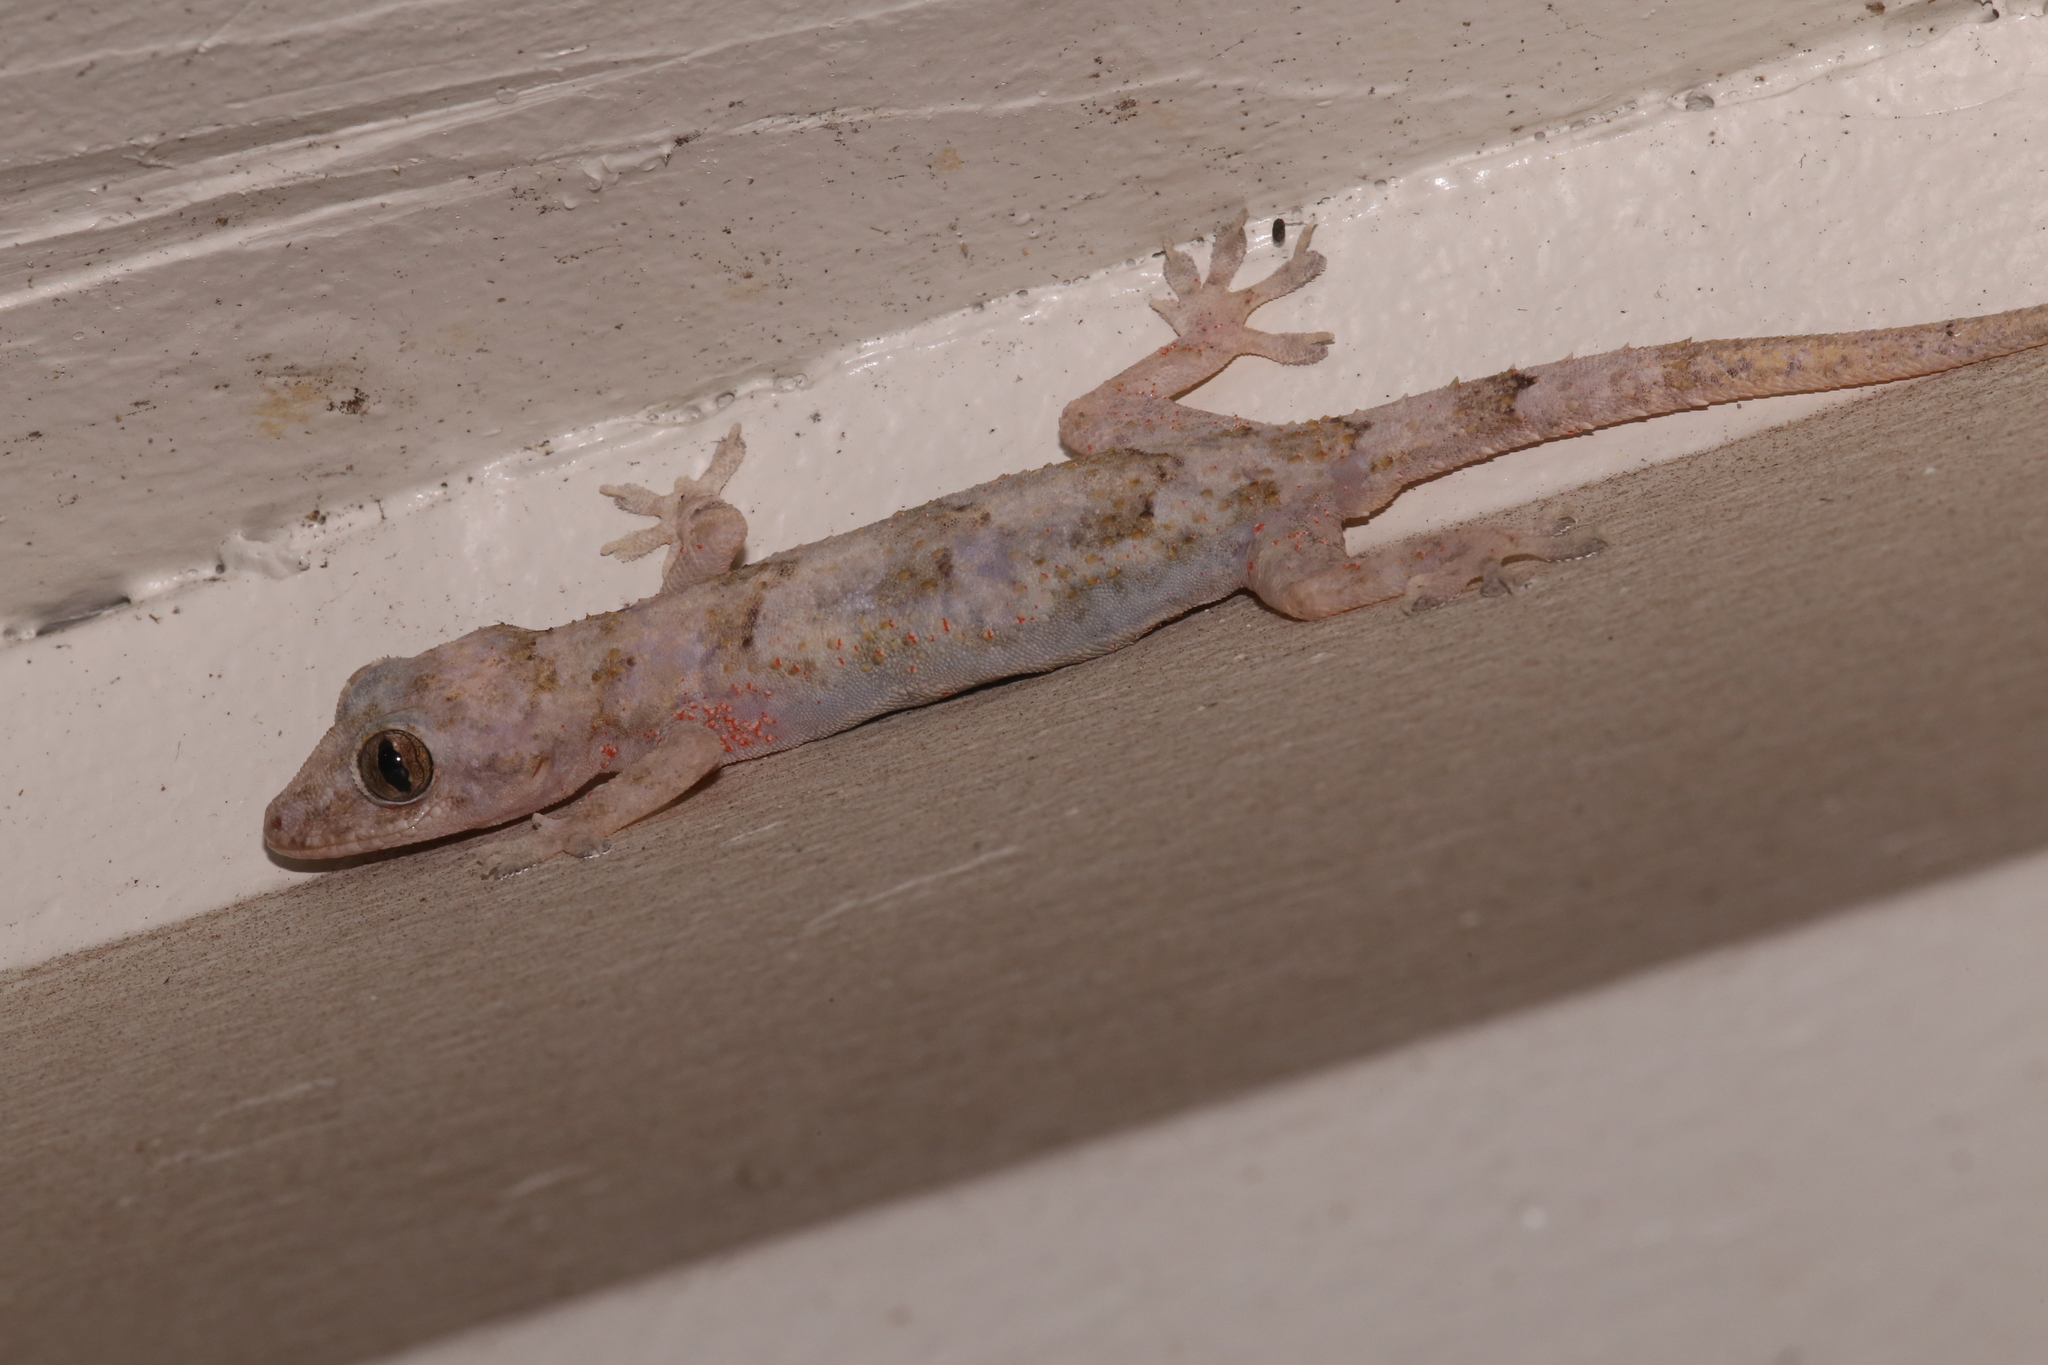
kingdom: Animalia
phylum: Chordata
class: Squamata
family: Gekkonidae
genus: Hemidactylus
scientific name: Hemidactylus mabouia
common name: House gecko
